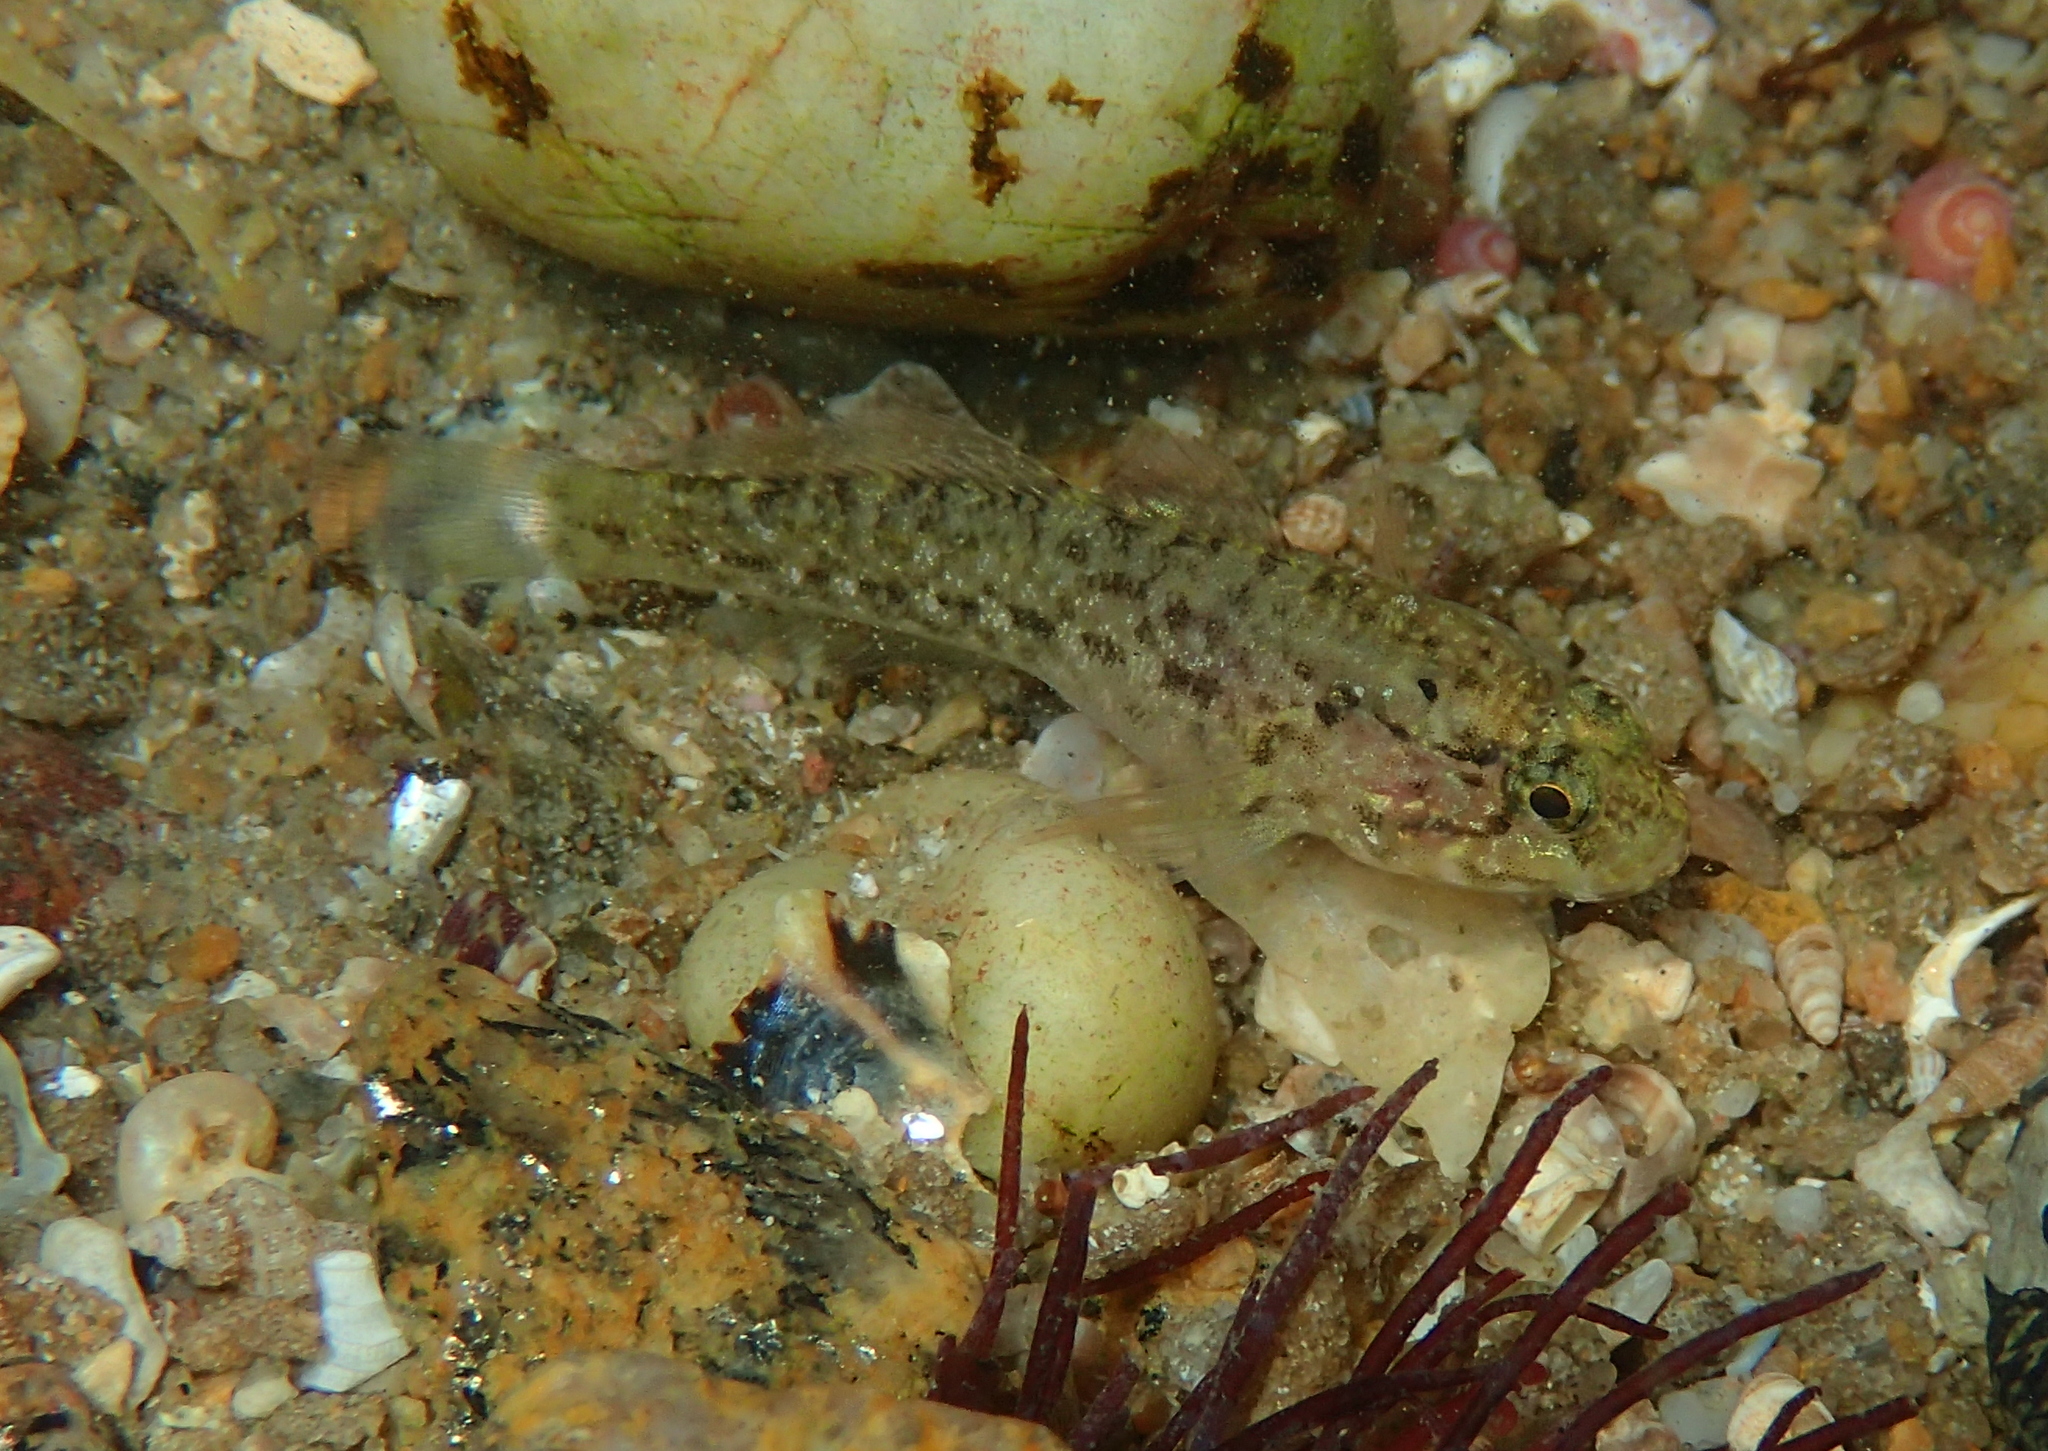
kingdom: Animalia
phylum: Chordata
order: Perciformes
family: Gobiidae
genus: Gobius
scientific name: Gobius paganellus
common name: Rock goby
